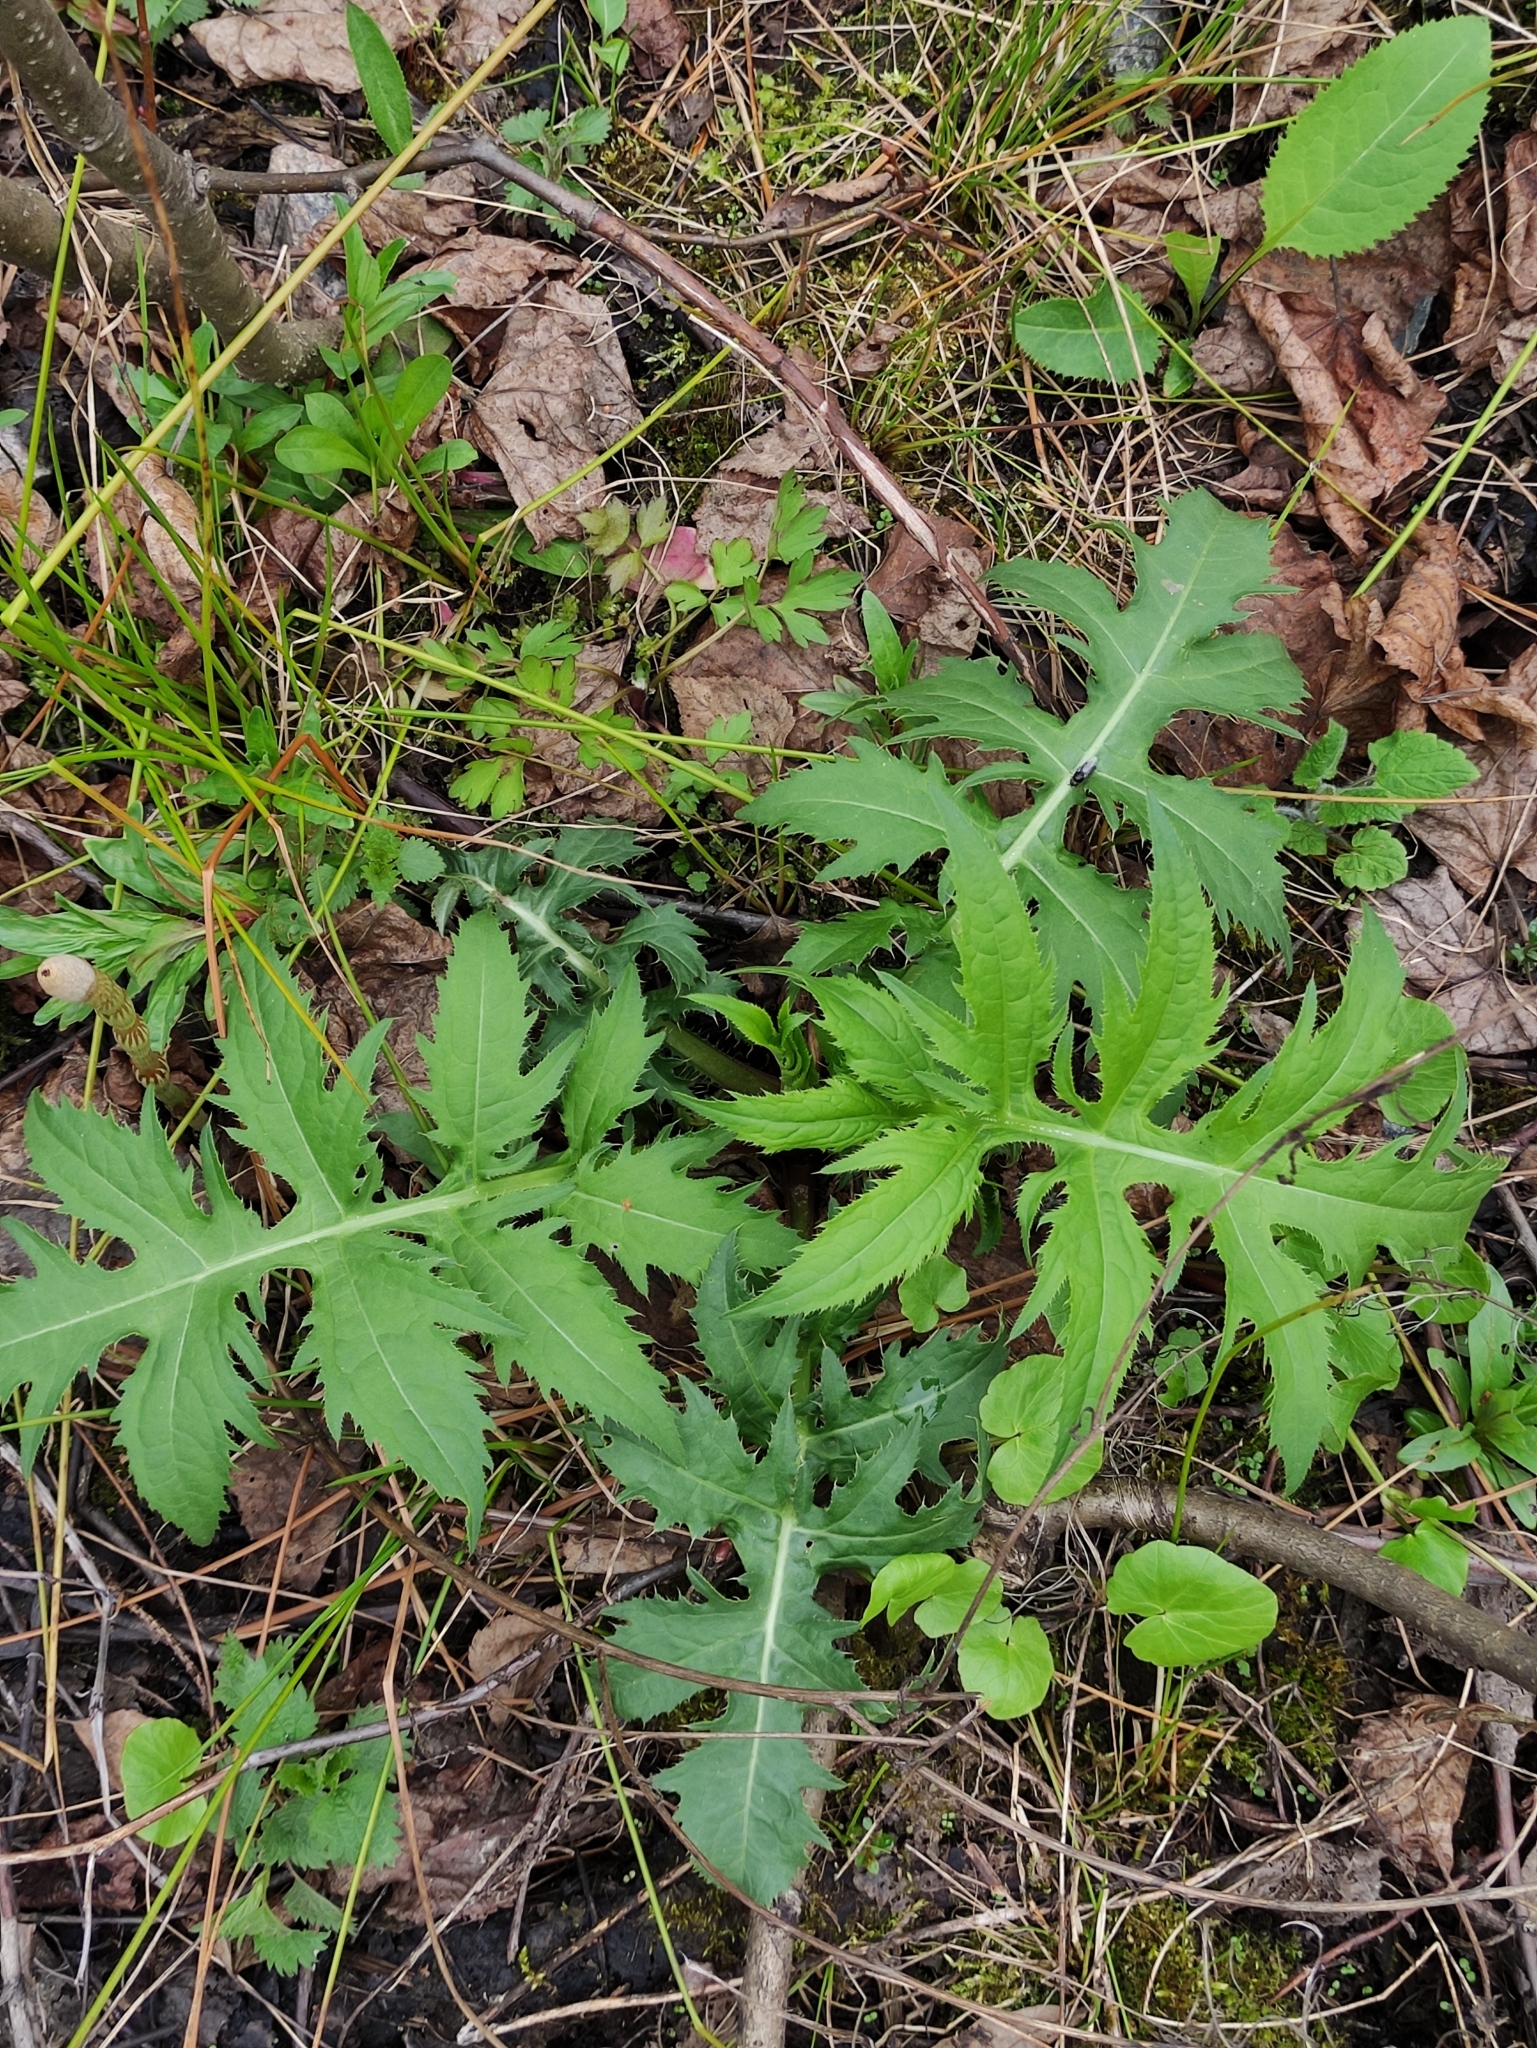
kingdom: Plantae
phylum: Tracheophyta
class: Magnoliopsida
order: Asterales
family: Asteraceae
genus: Cirsium
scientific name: Cirsium oleraceum
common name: Cabbage thistle
